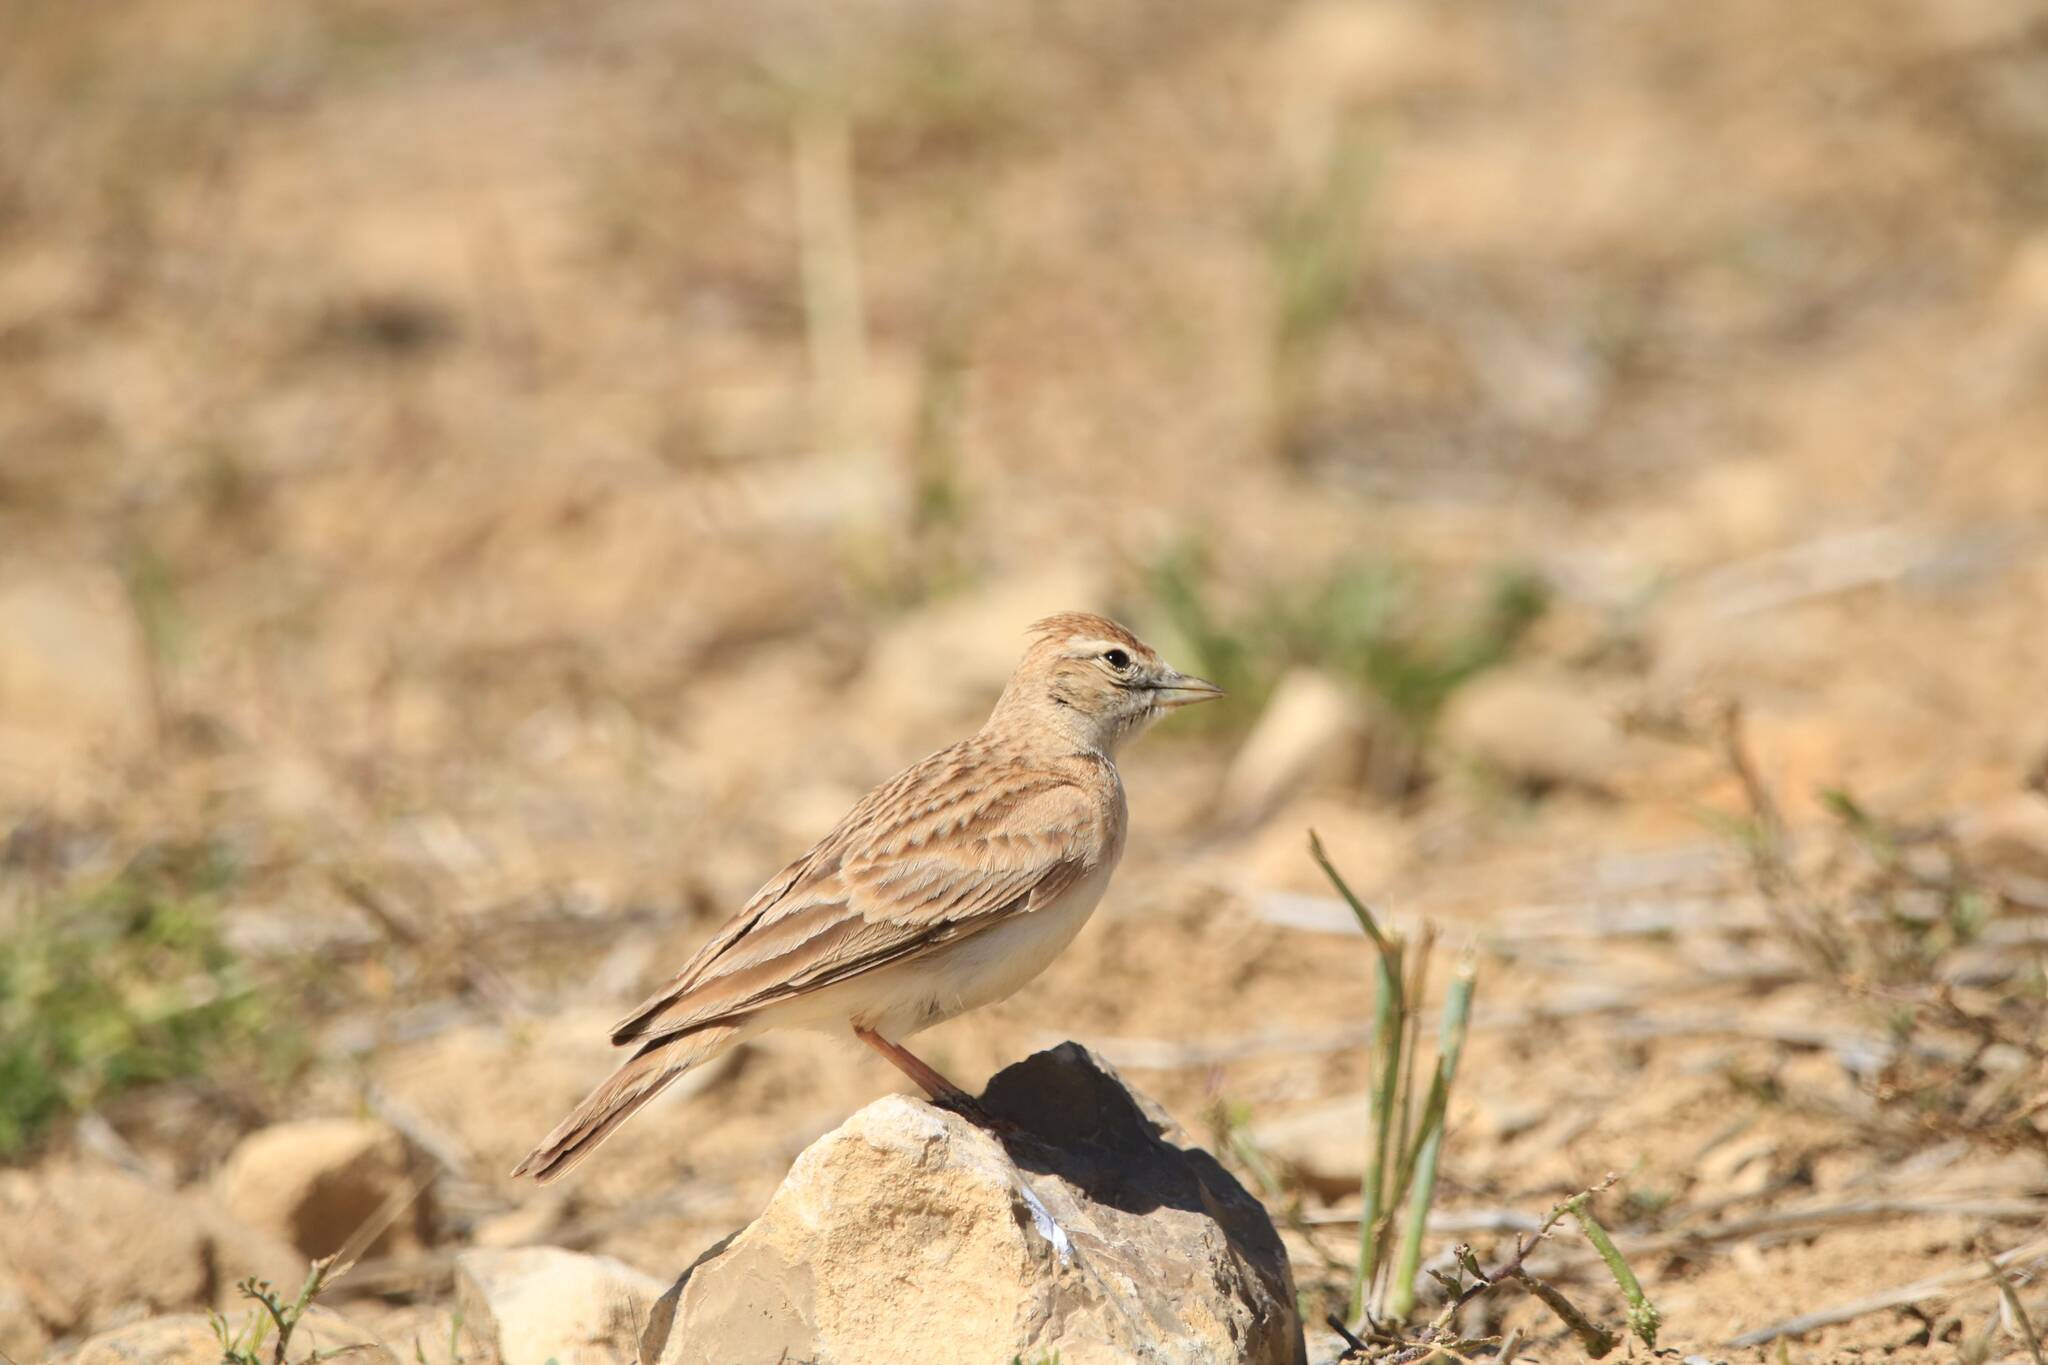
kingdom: Animalia
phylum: Chordata
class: Aves
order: Passeriformes
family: Alaudidae
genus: Calandrella
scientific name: Calandrella brachydactyla
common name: Greater short-toed lark
